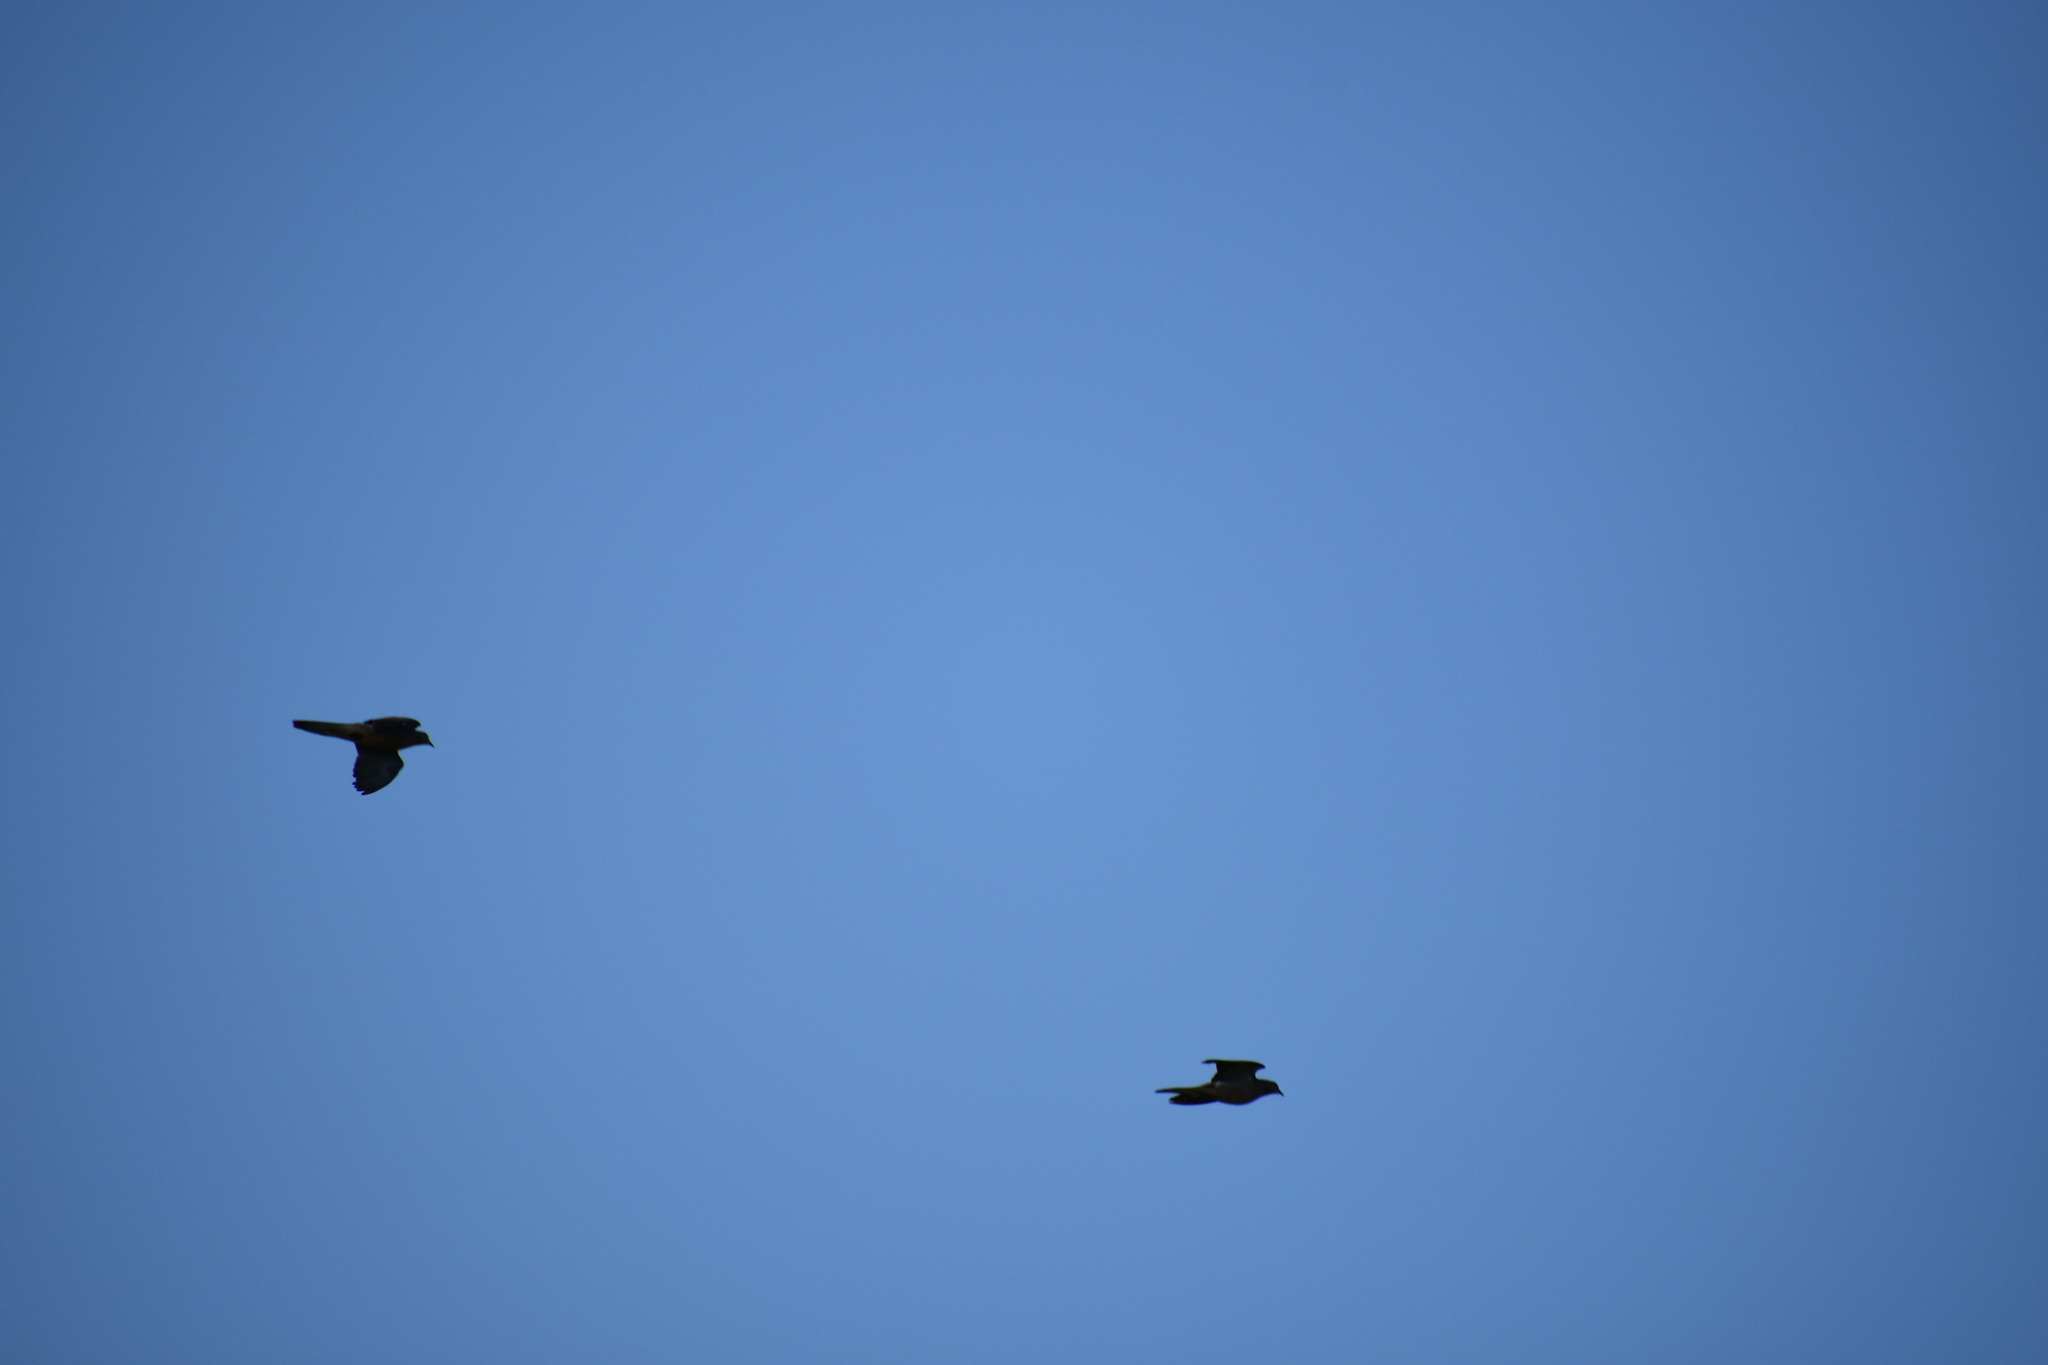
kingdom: Animalia
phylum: Chordata
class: Aves
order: Columbiformes
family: Columbidae
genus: Zenaida
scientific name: Zenaida macroura
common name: Mourning dove
